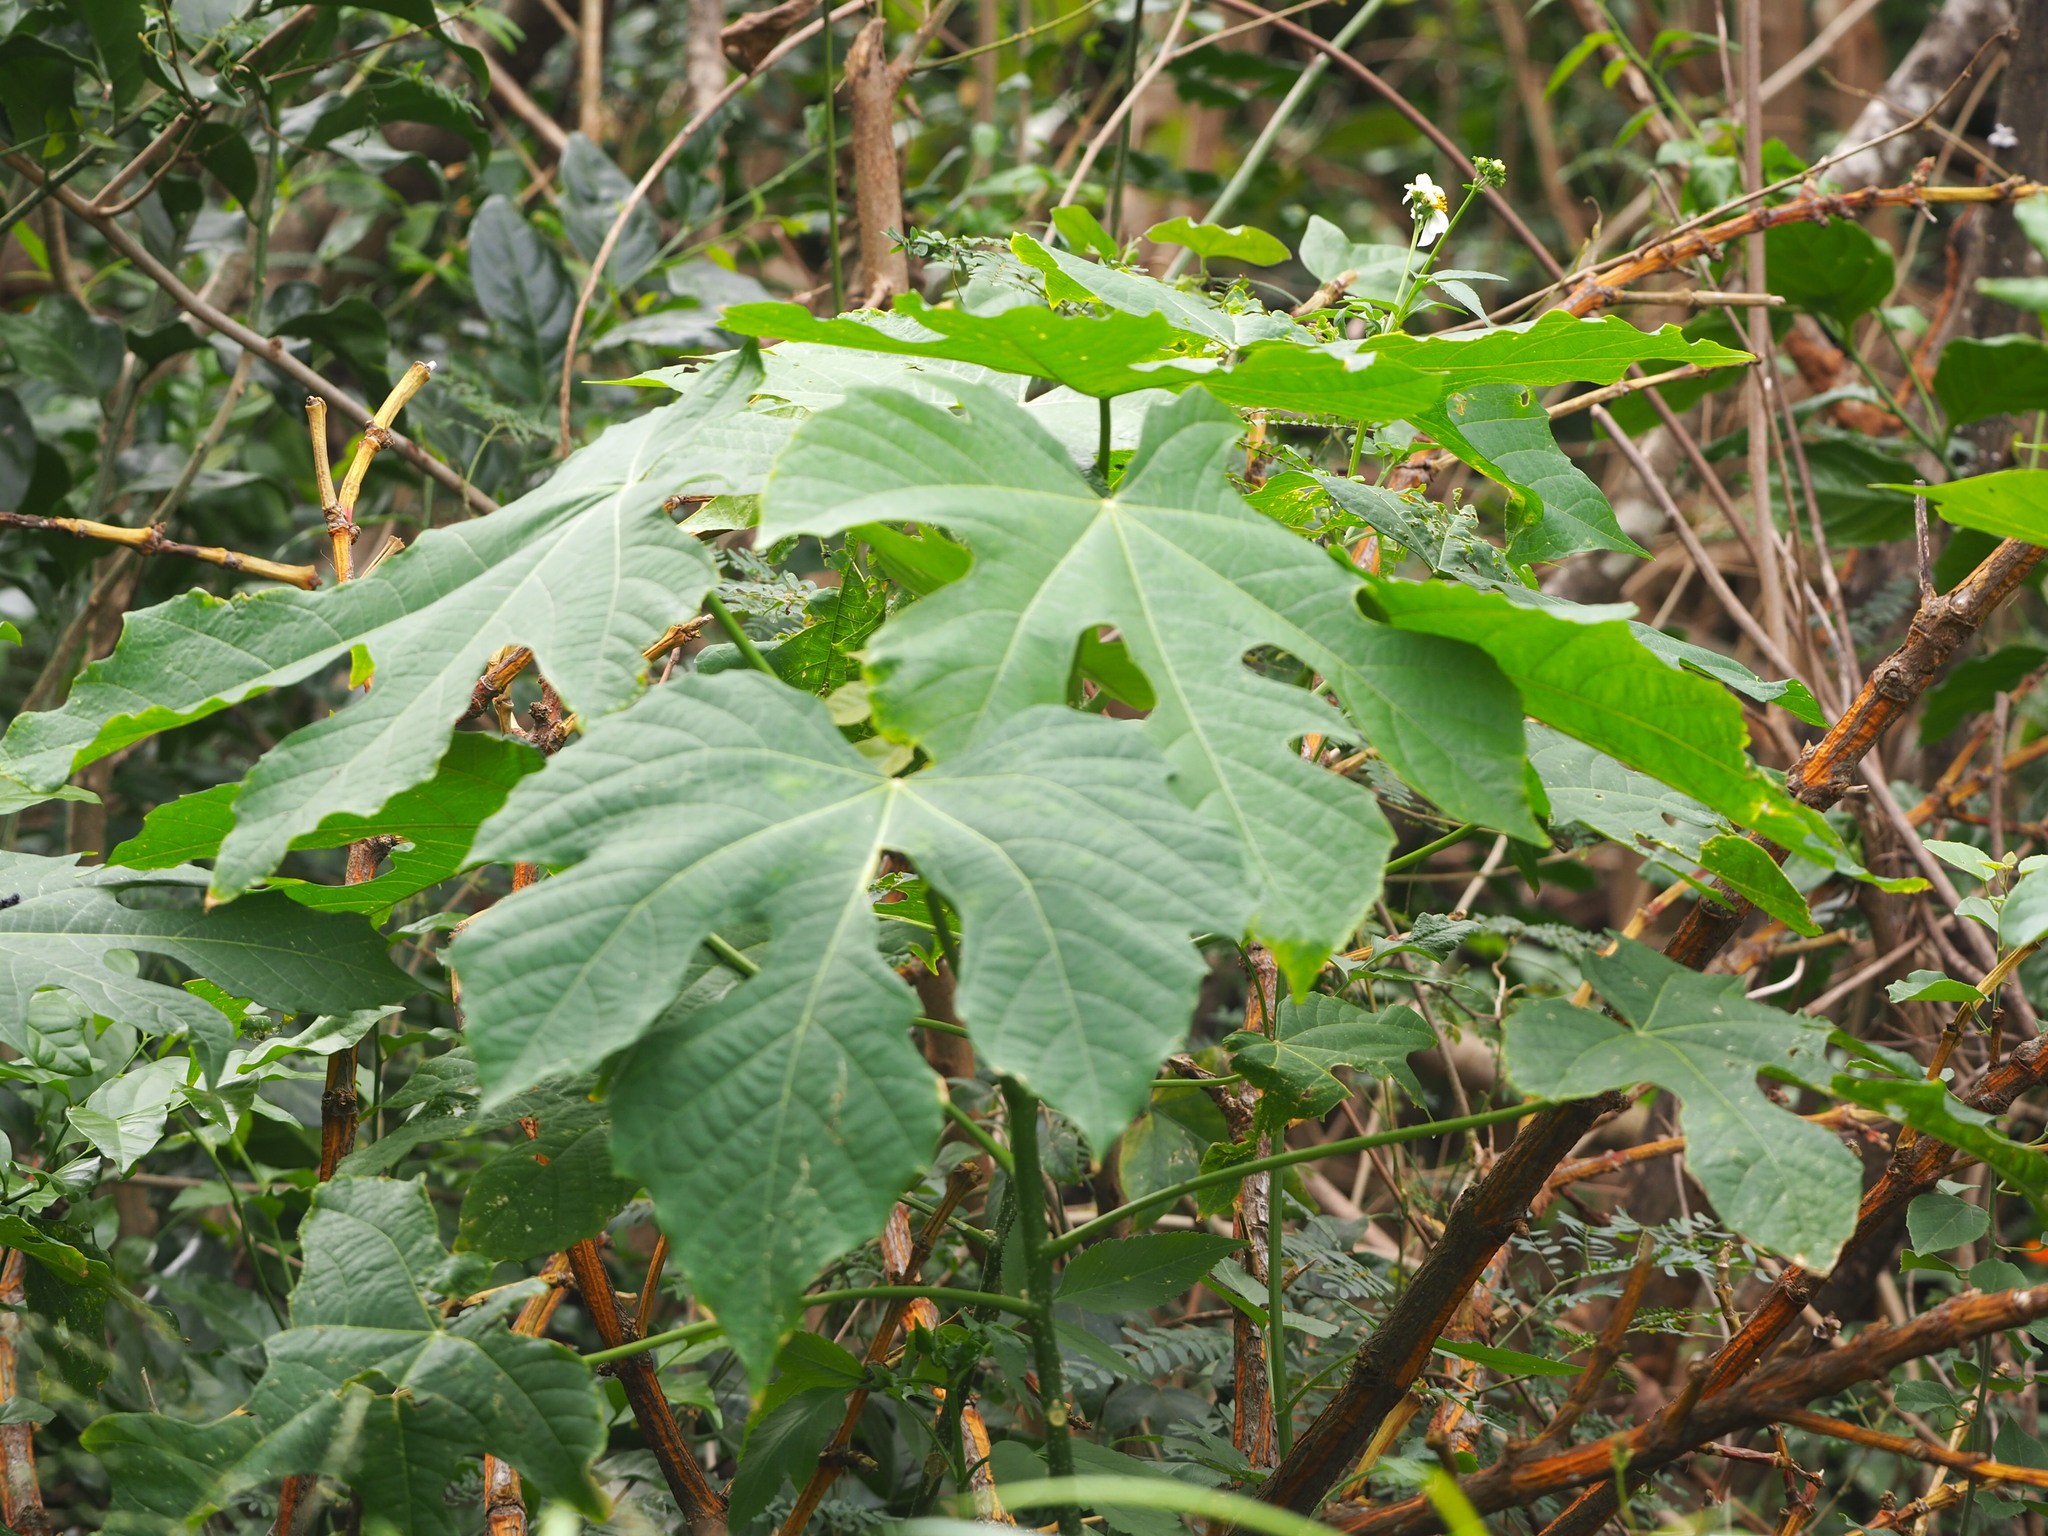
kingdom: Plantae
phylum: Tracheophyta
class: Magnoliopsida
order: Malpighiales
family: Euphorbiaceae
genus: Melanolepis
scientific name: Melanolepis multiglandulosa
